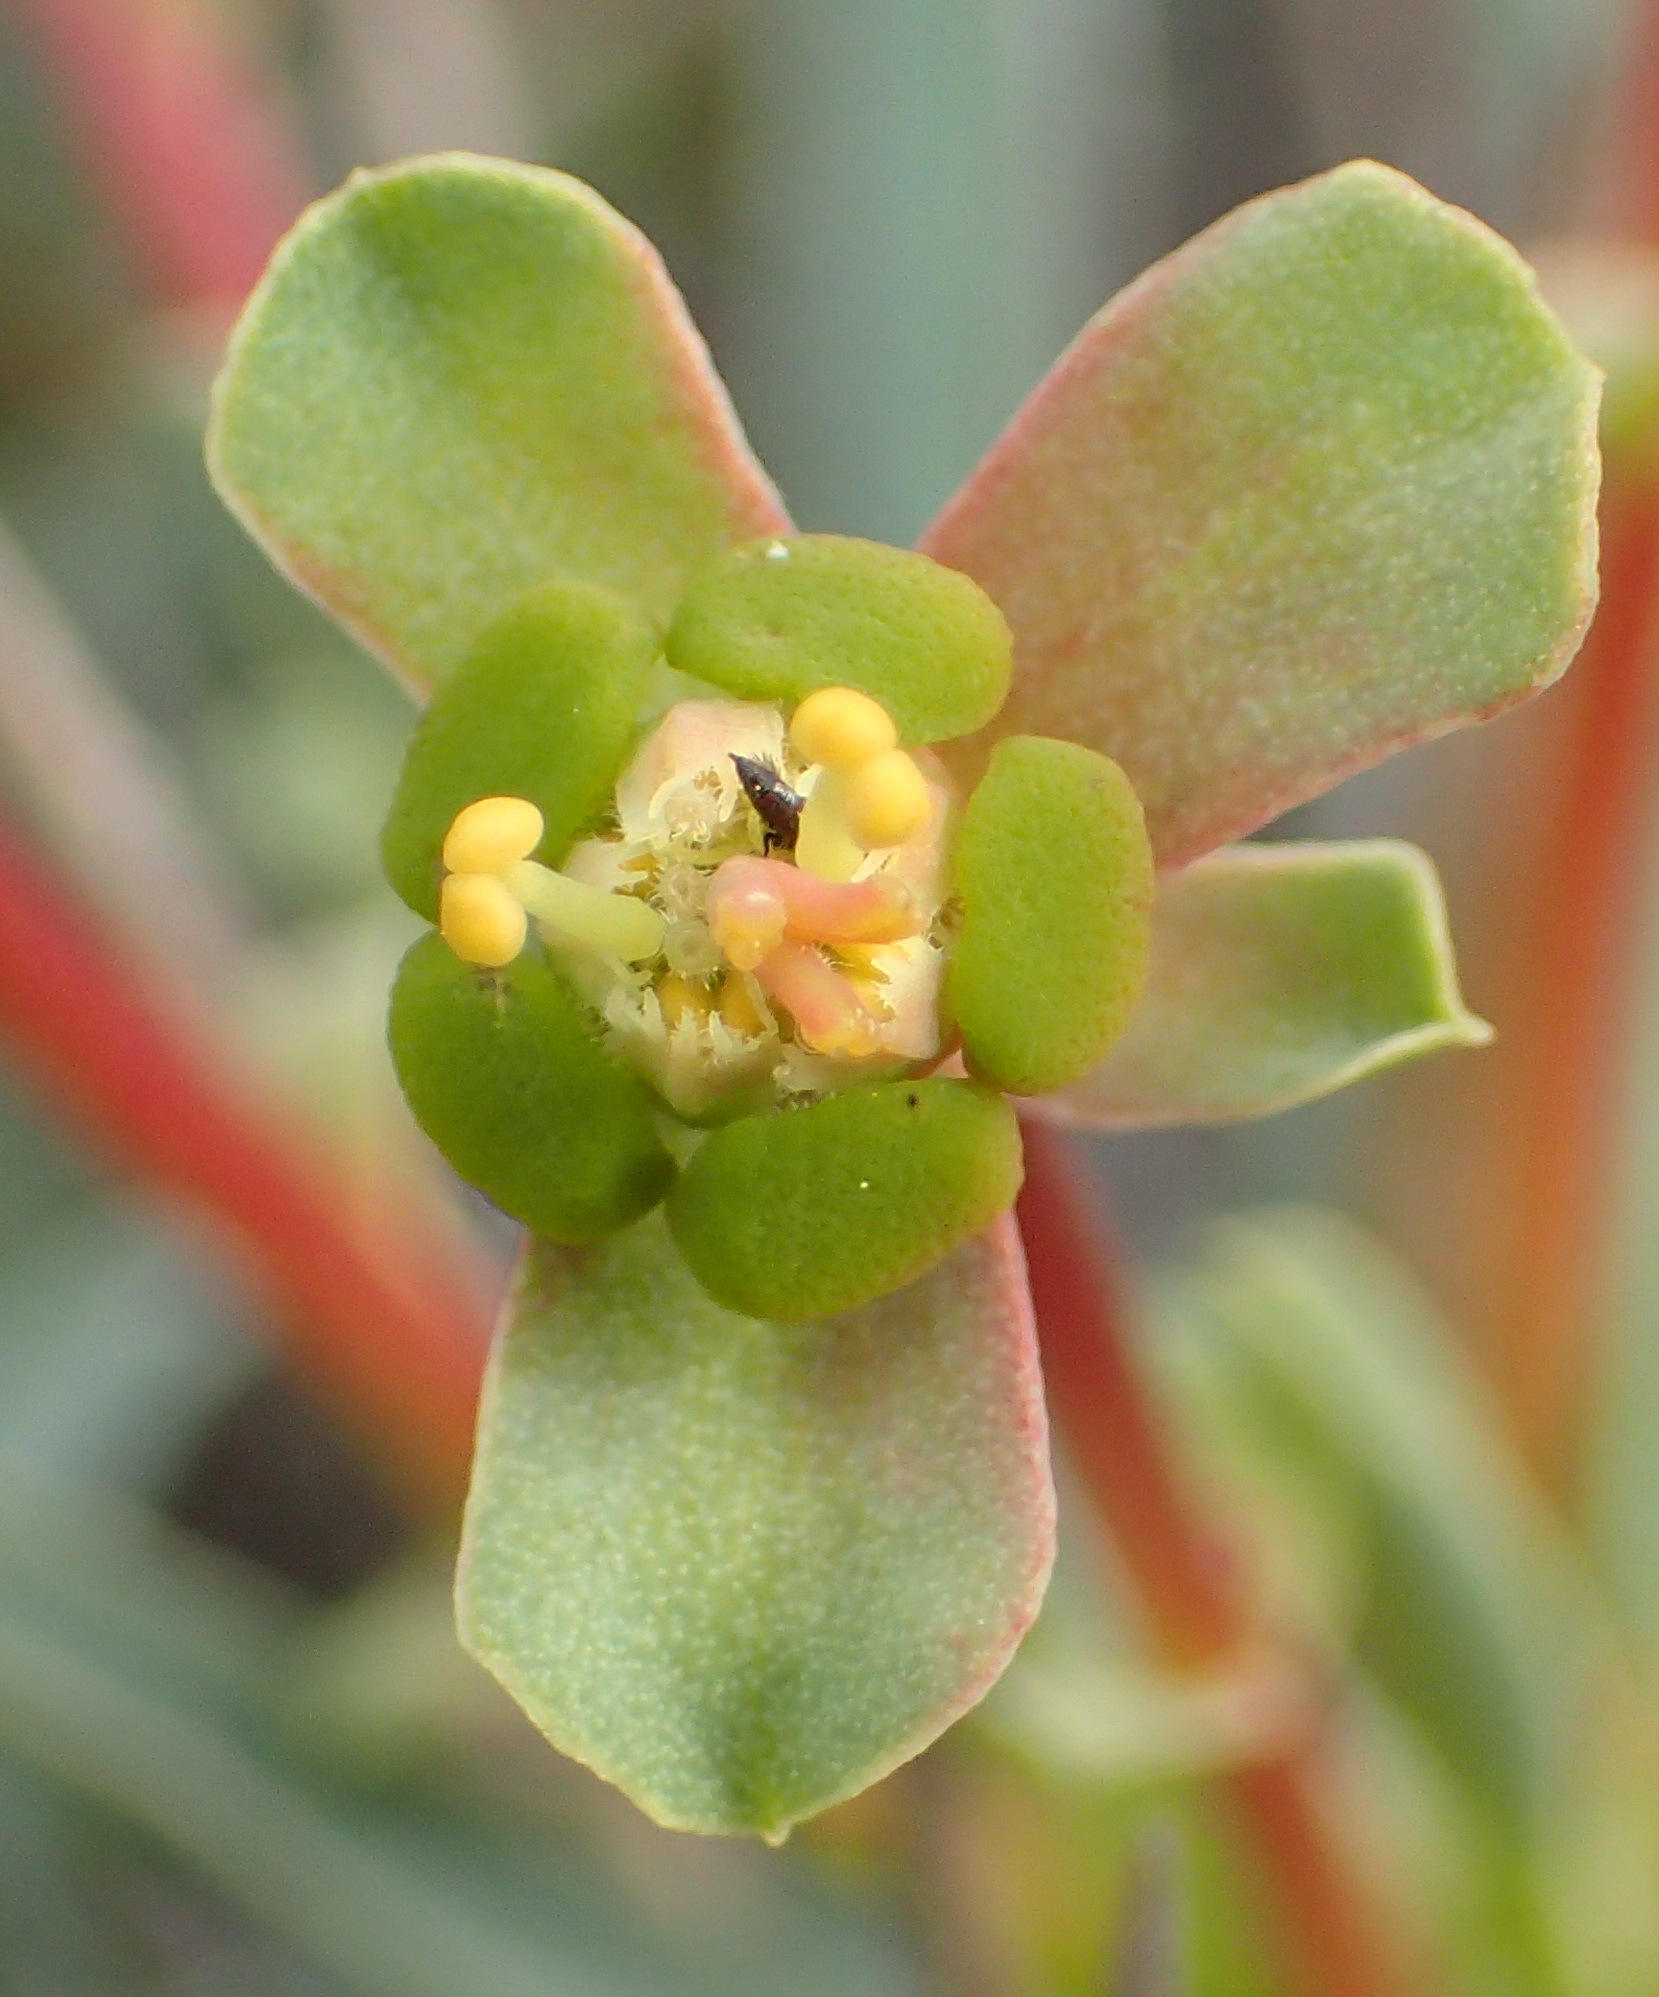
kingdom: Plantae
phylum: Tracheophyta
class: Magnoliopsida
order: Malpighiales
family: Euphorbiaceae
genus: Euphorbia
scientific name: Euphorbia loricata
